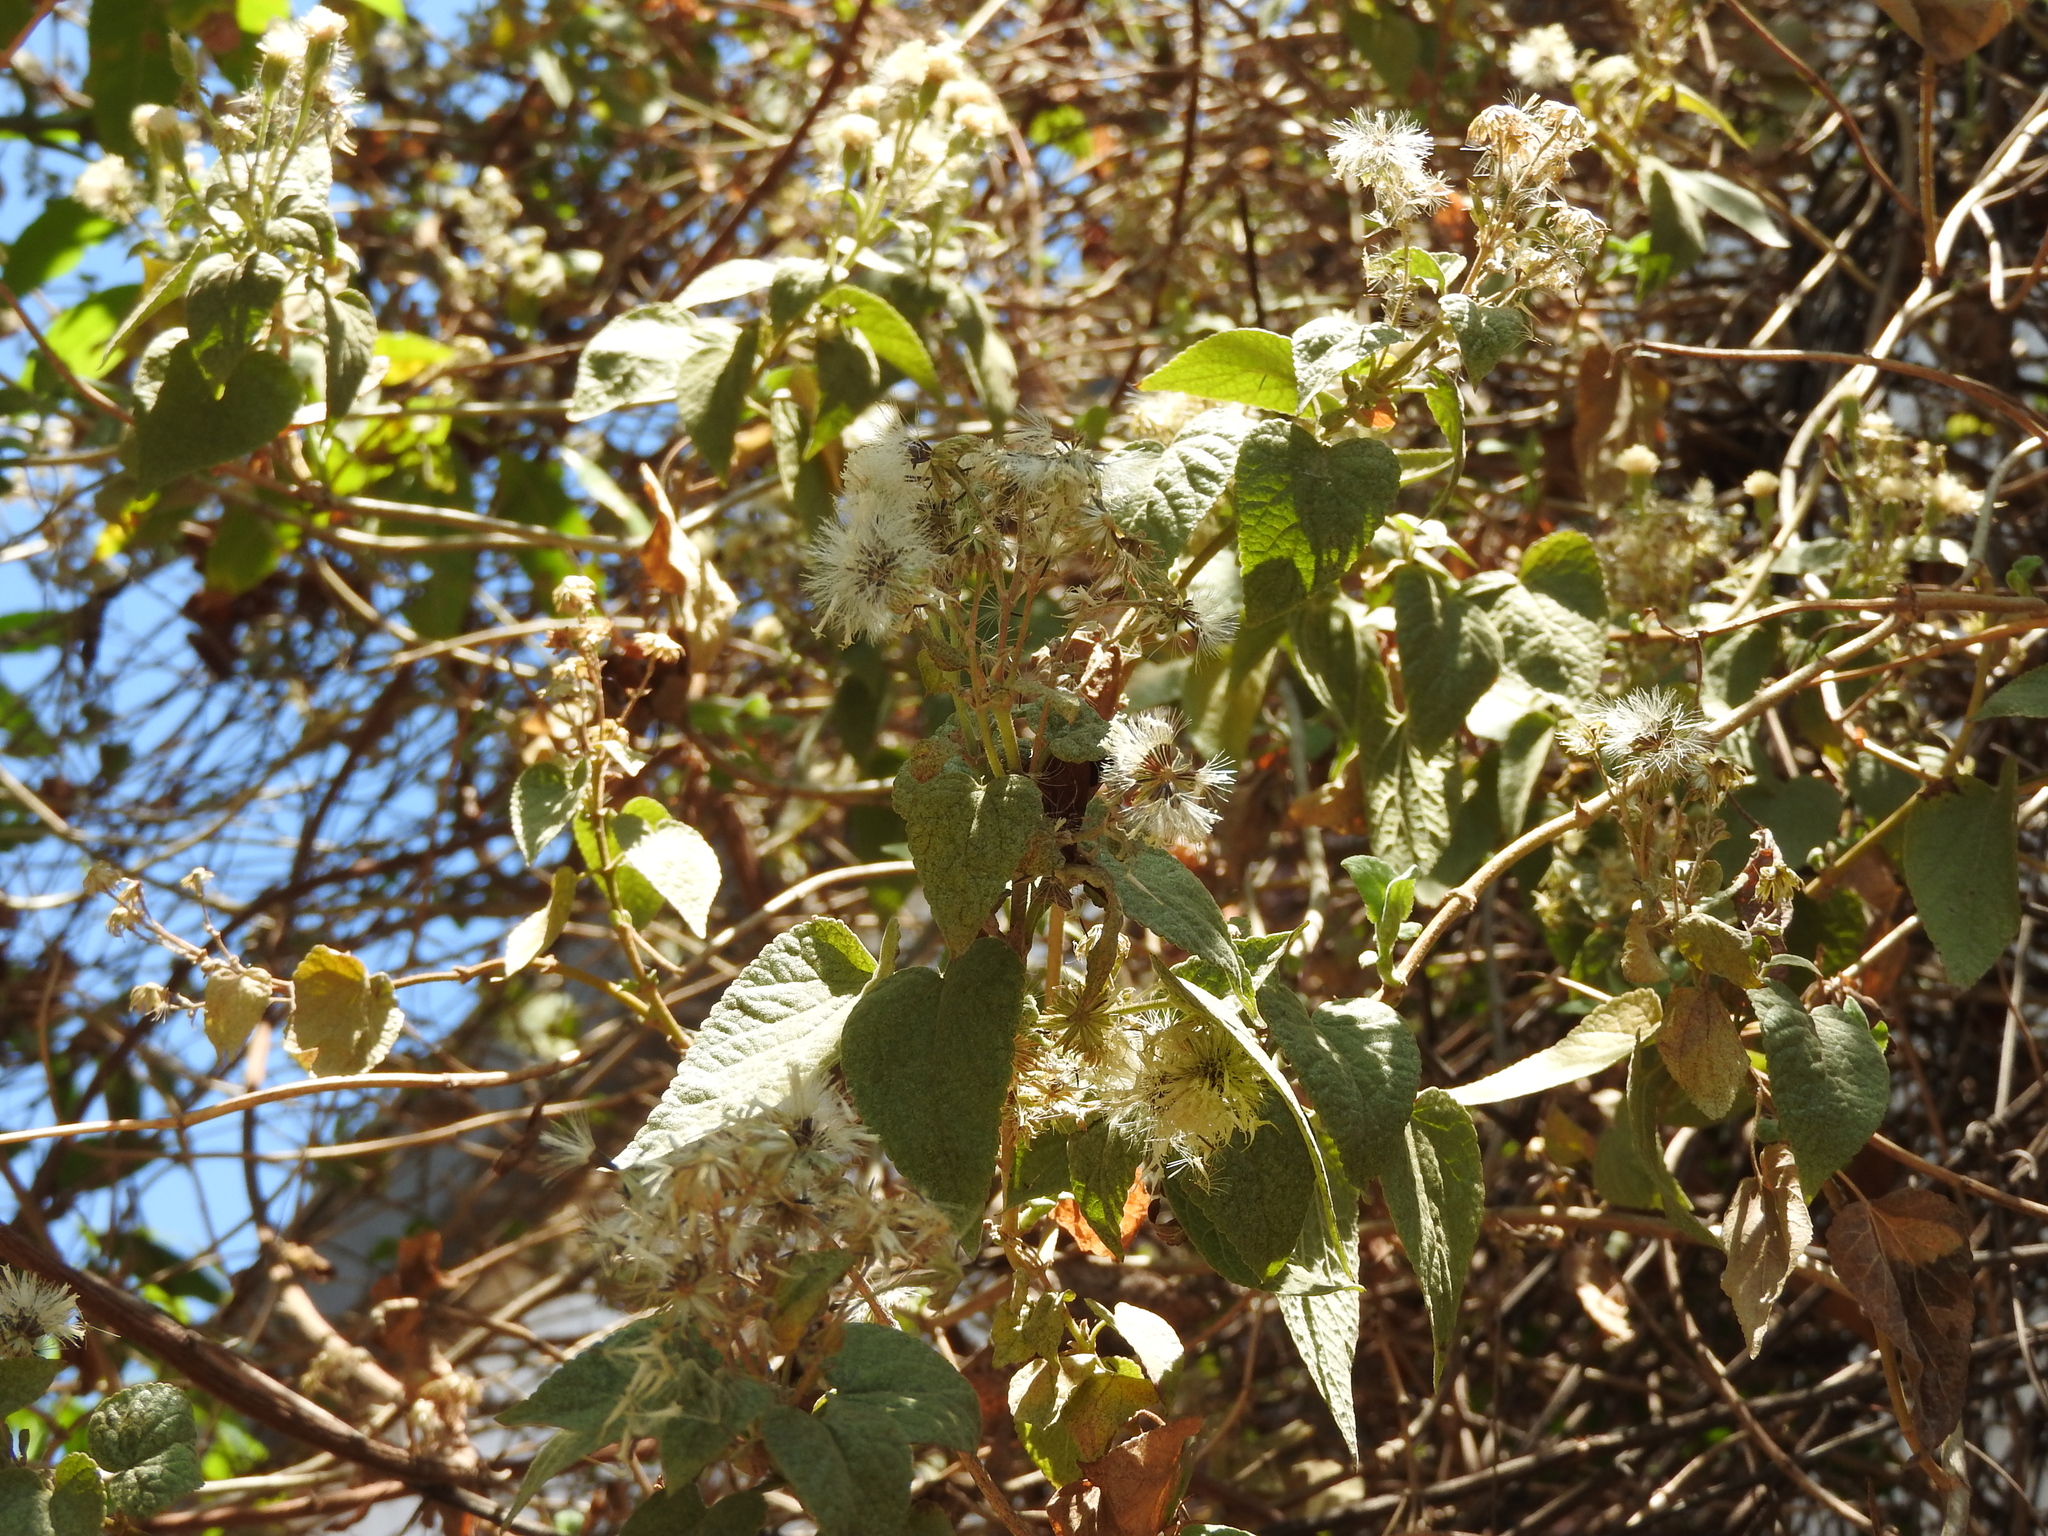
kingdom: Plantae
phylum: Tracheophyta
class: Magnoliopsida
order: Asterales
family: Asteraceae
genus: Ageratina
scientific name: Ageratina petiolaris
